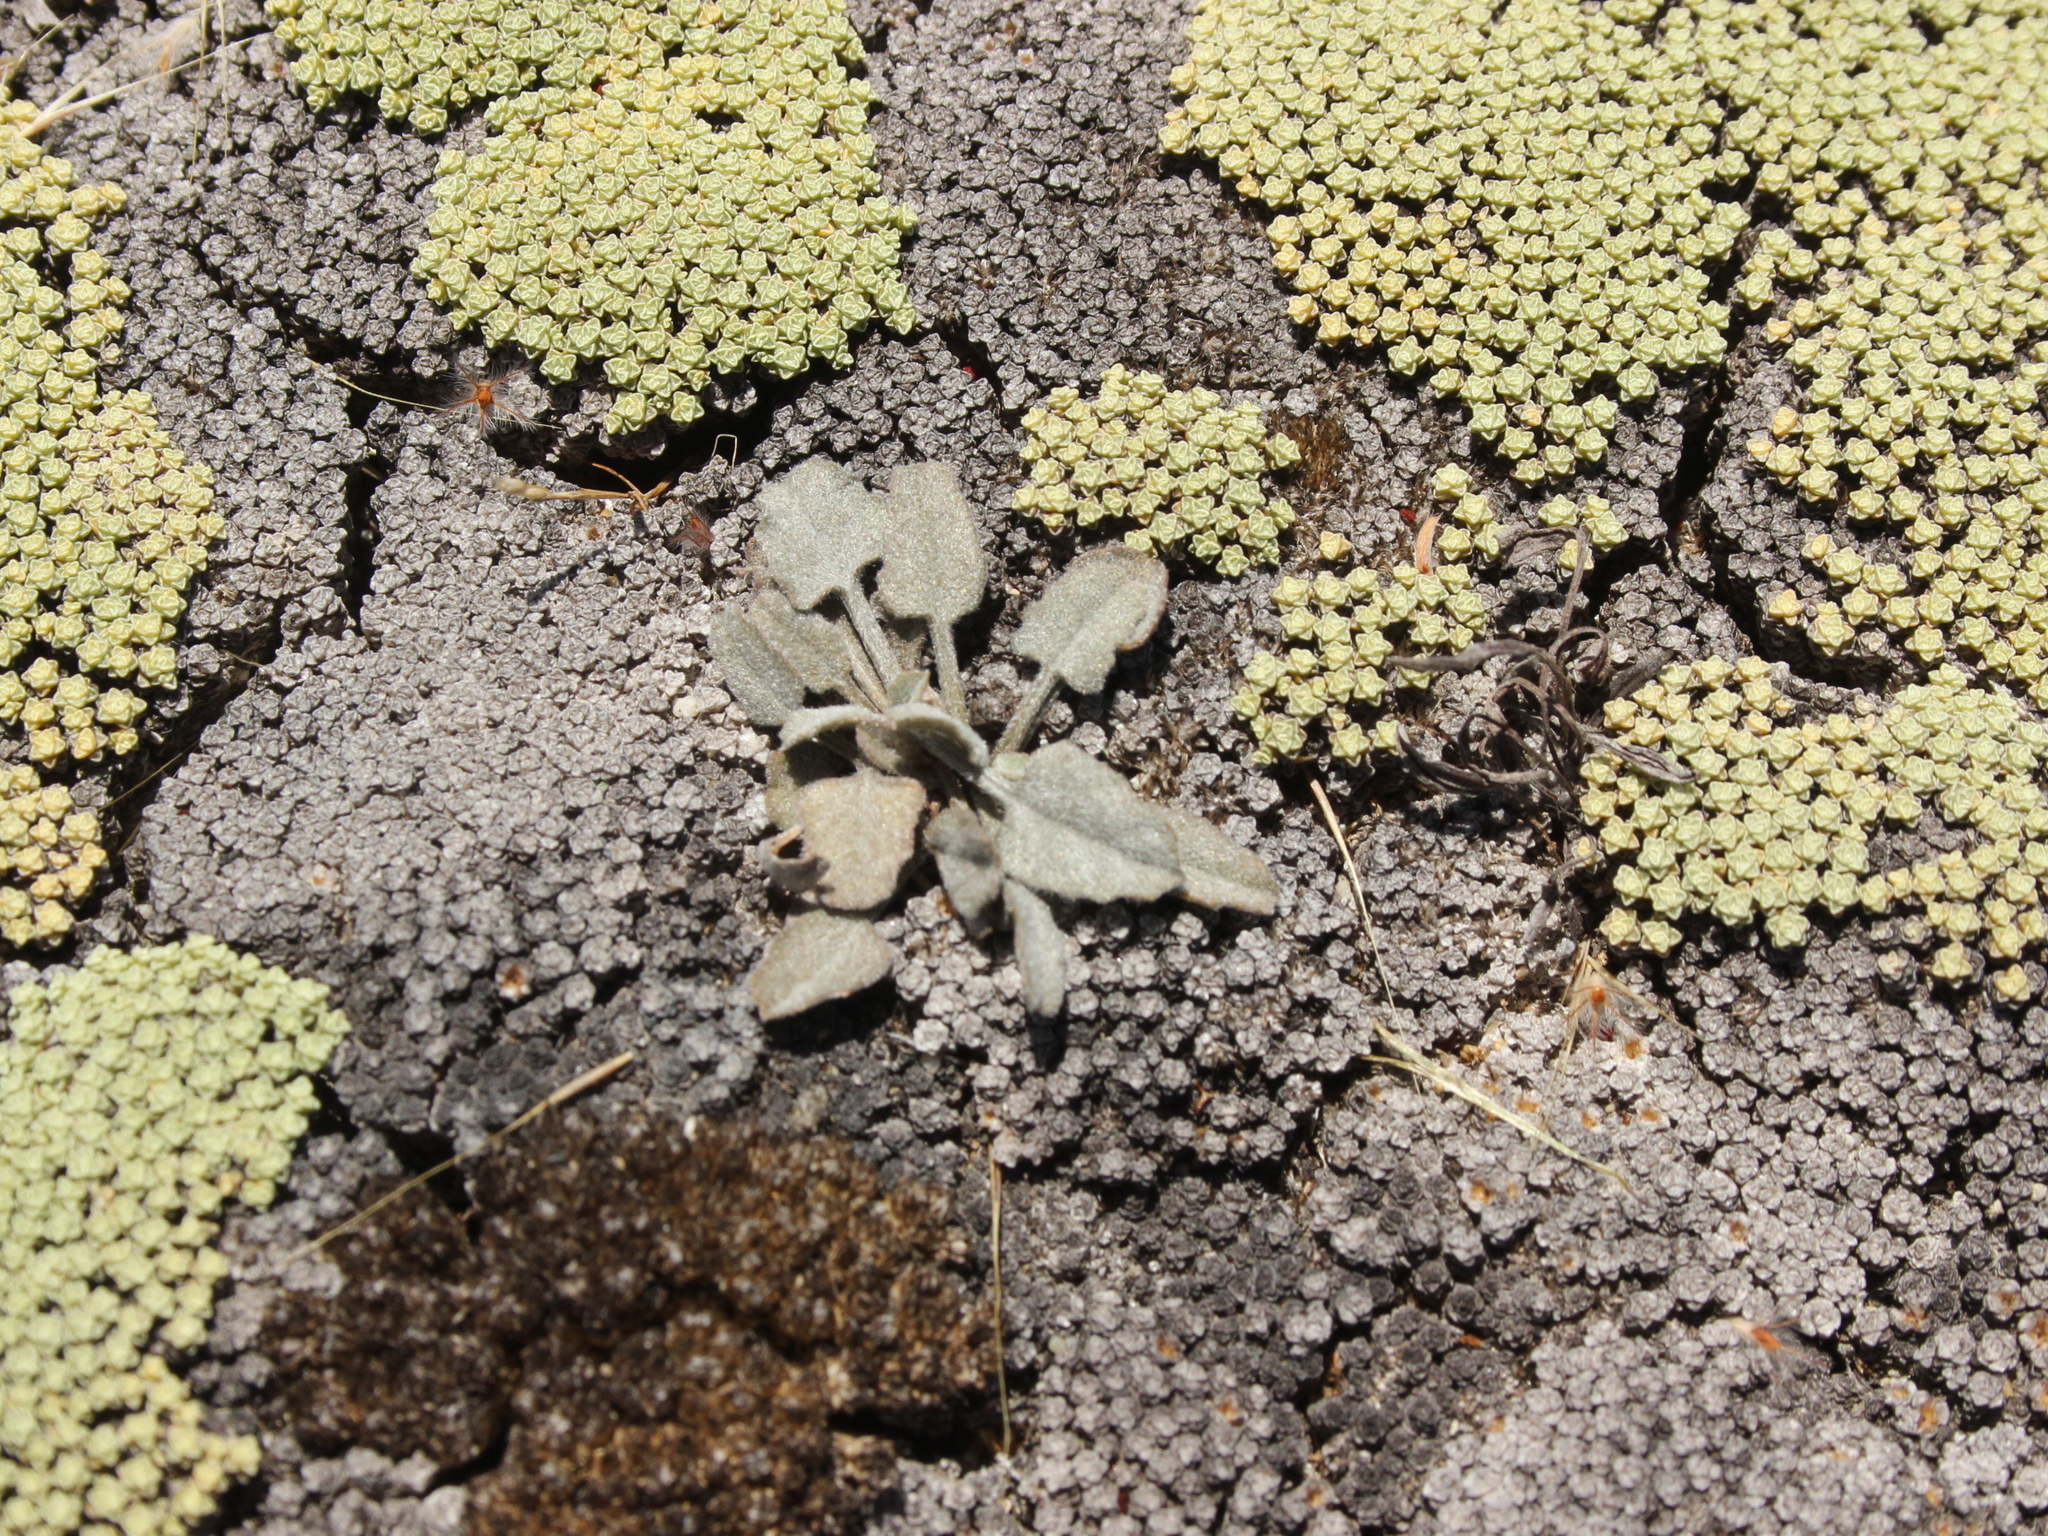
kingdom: Plantae
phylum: Tracheophyta
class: Magnoliopsida
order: Solanales
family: Convolvulaceae
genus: Convolvulus
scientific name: Convolvulus verecundus
